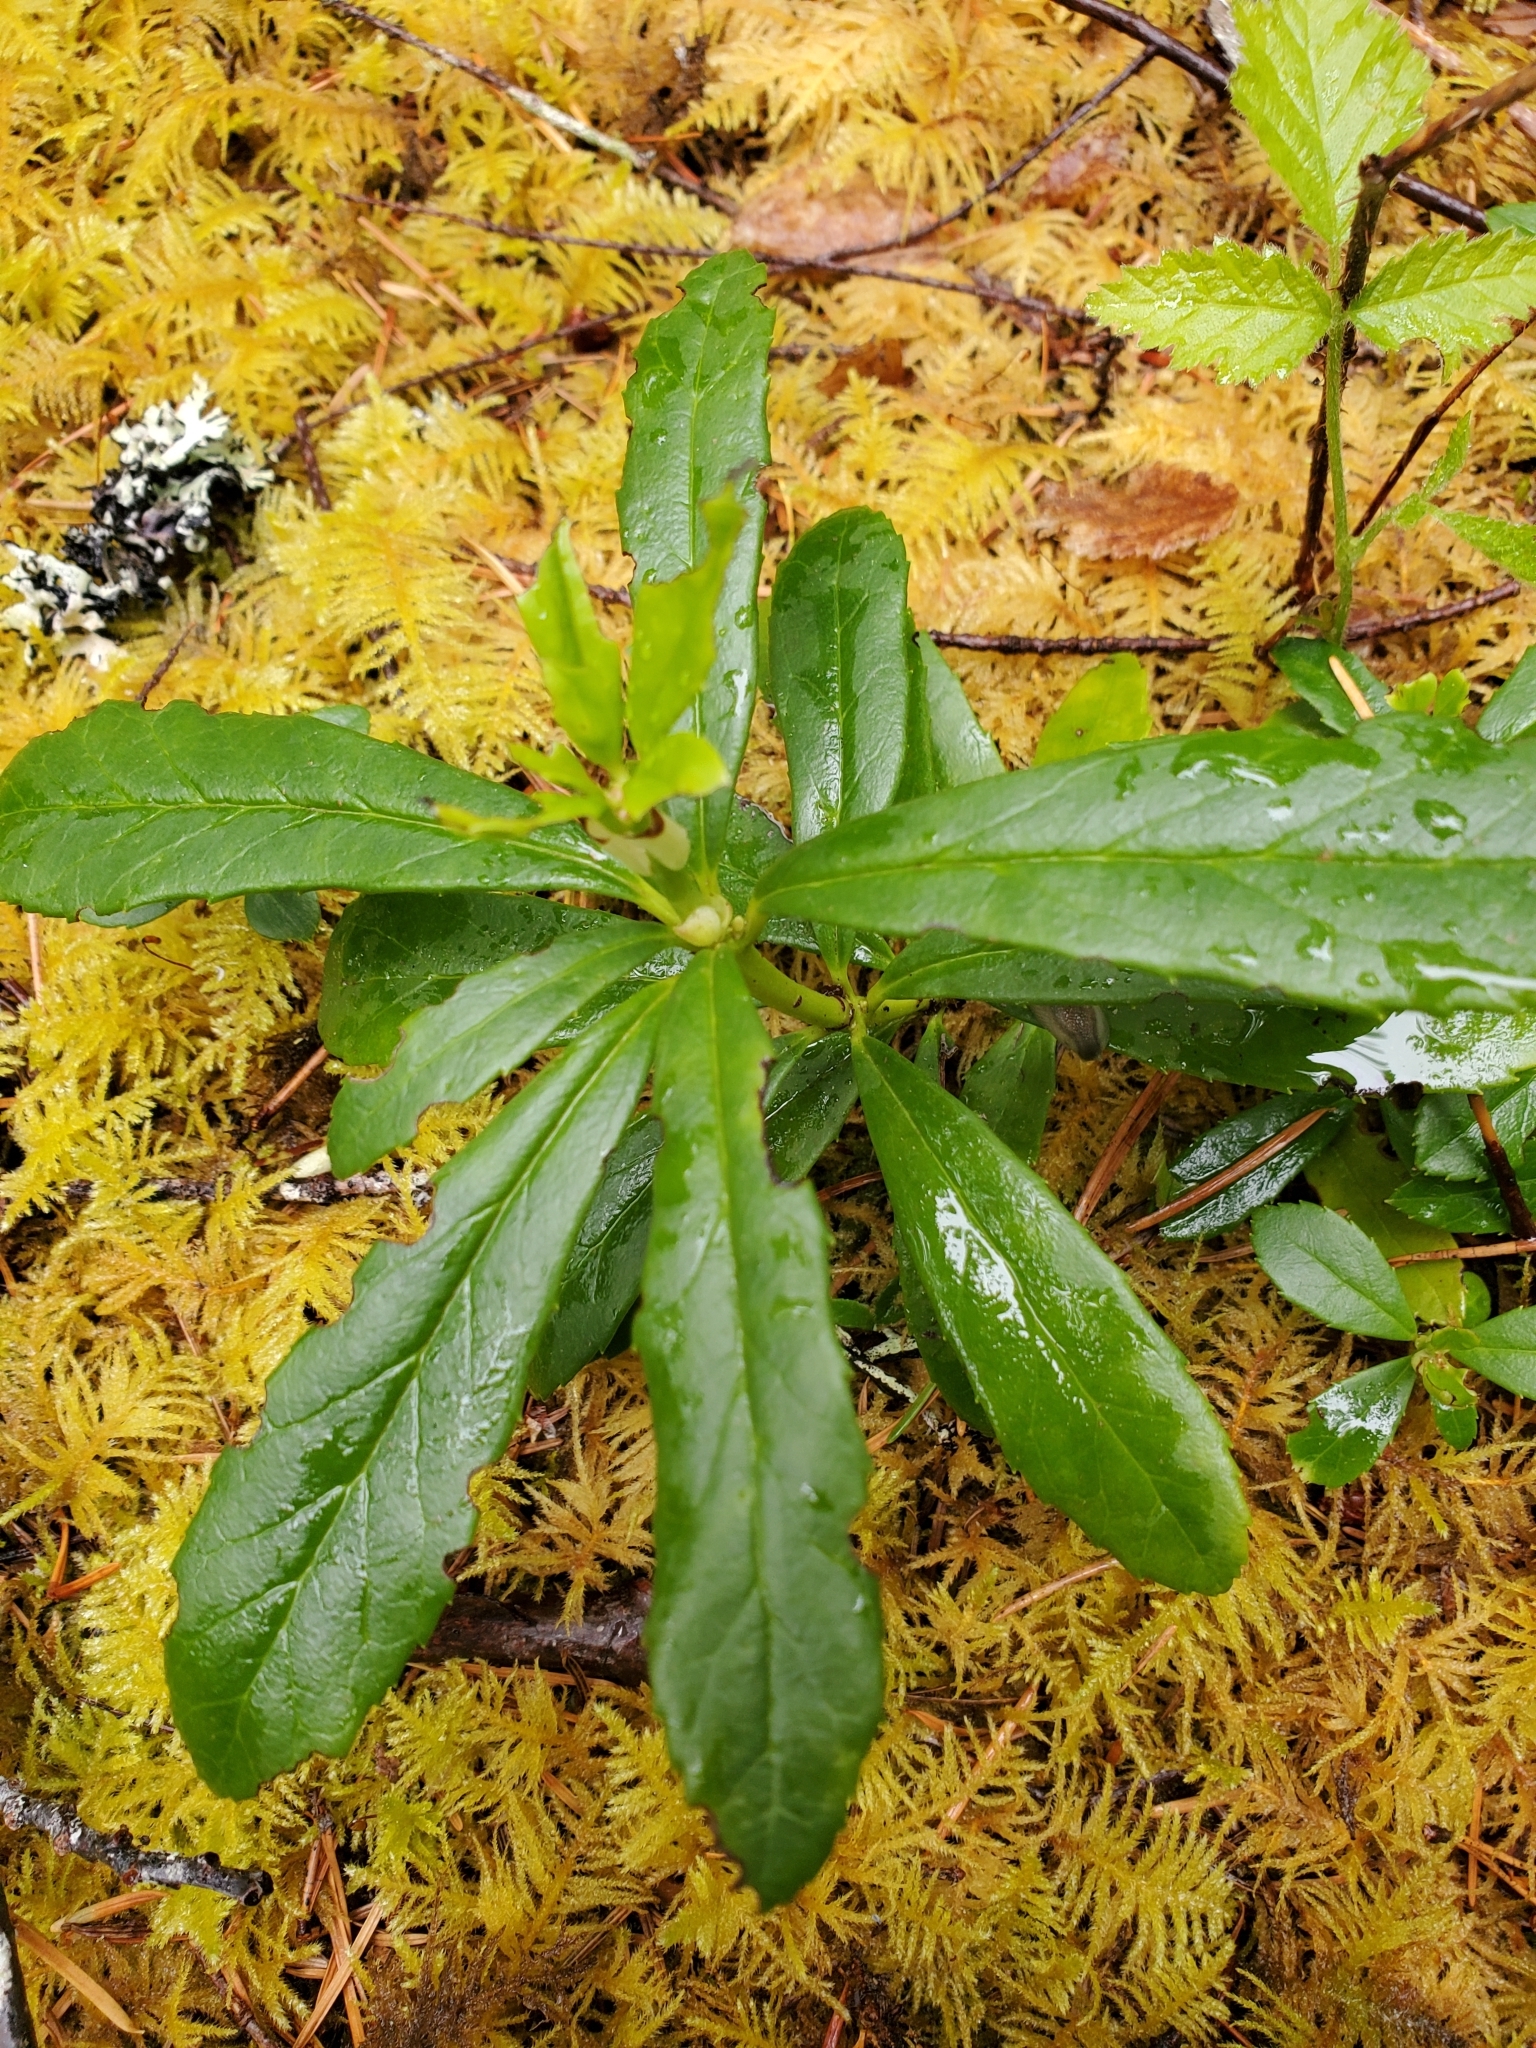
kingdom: Plantae
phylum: Tracheophyta
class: Magnoliopsida
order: Ericales
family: Ericaceae
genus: Chimaphila
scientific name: Chimaphila umbellata
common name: Pipsissewa
